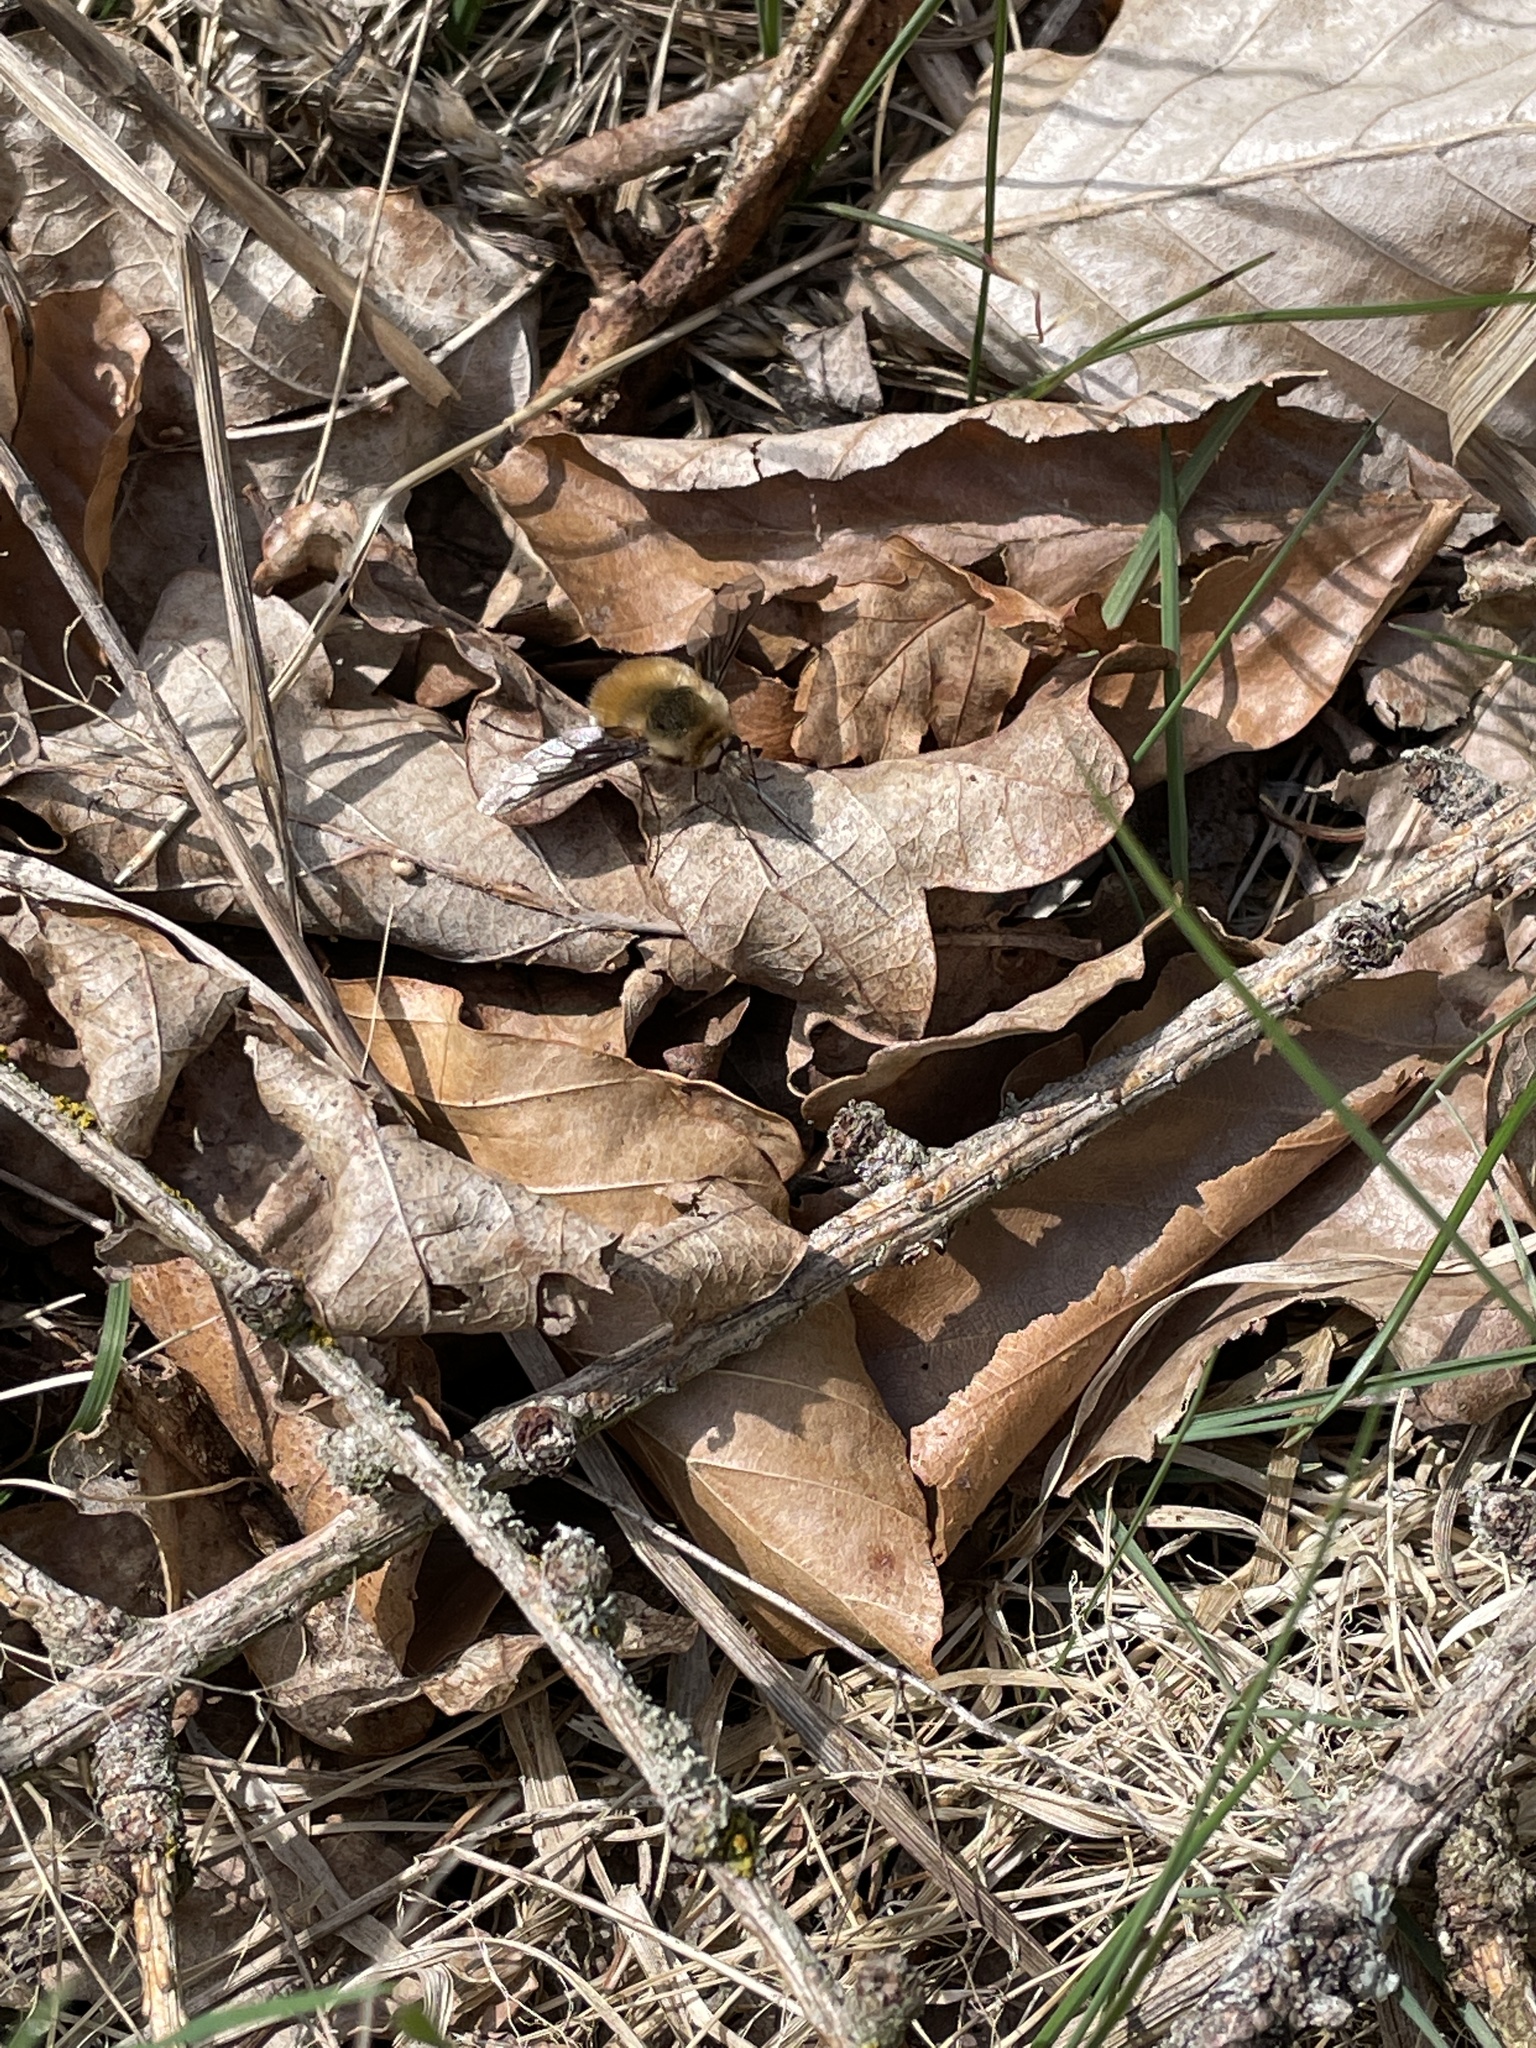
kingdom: Animalia
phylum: Arthropoda
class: Insecta
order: Diptera
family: Bombyliidae
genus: Bombylius
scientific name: Bombylius major
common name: Bee fly
